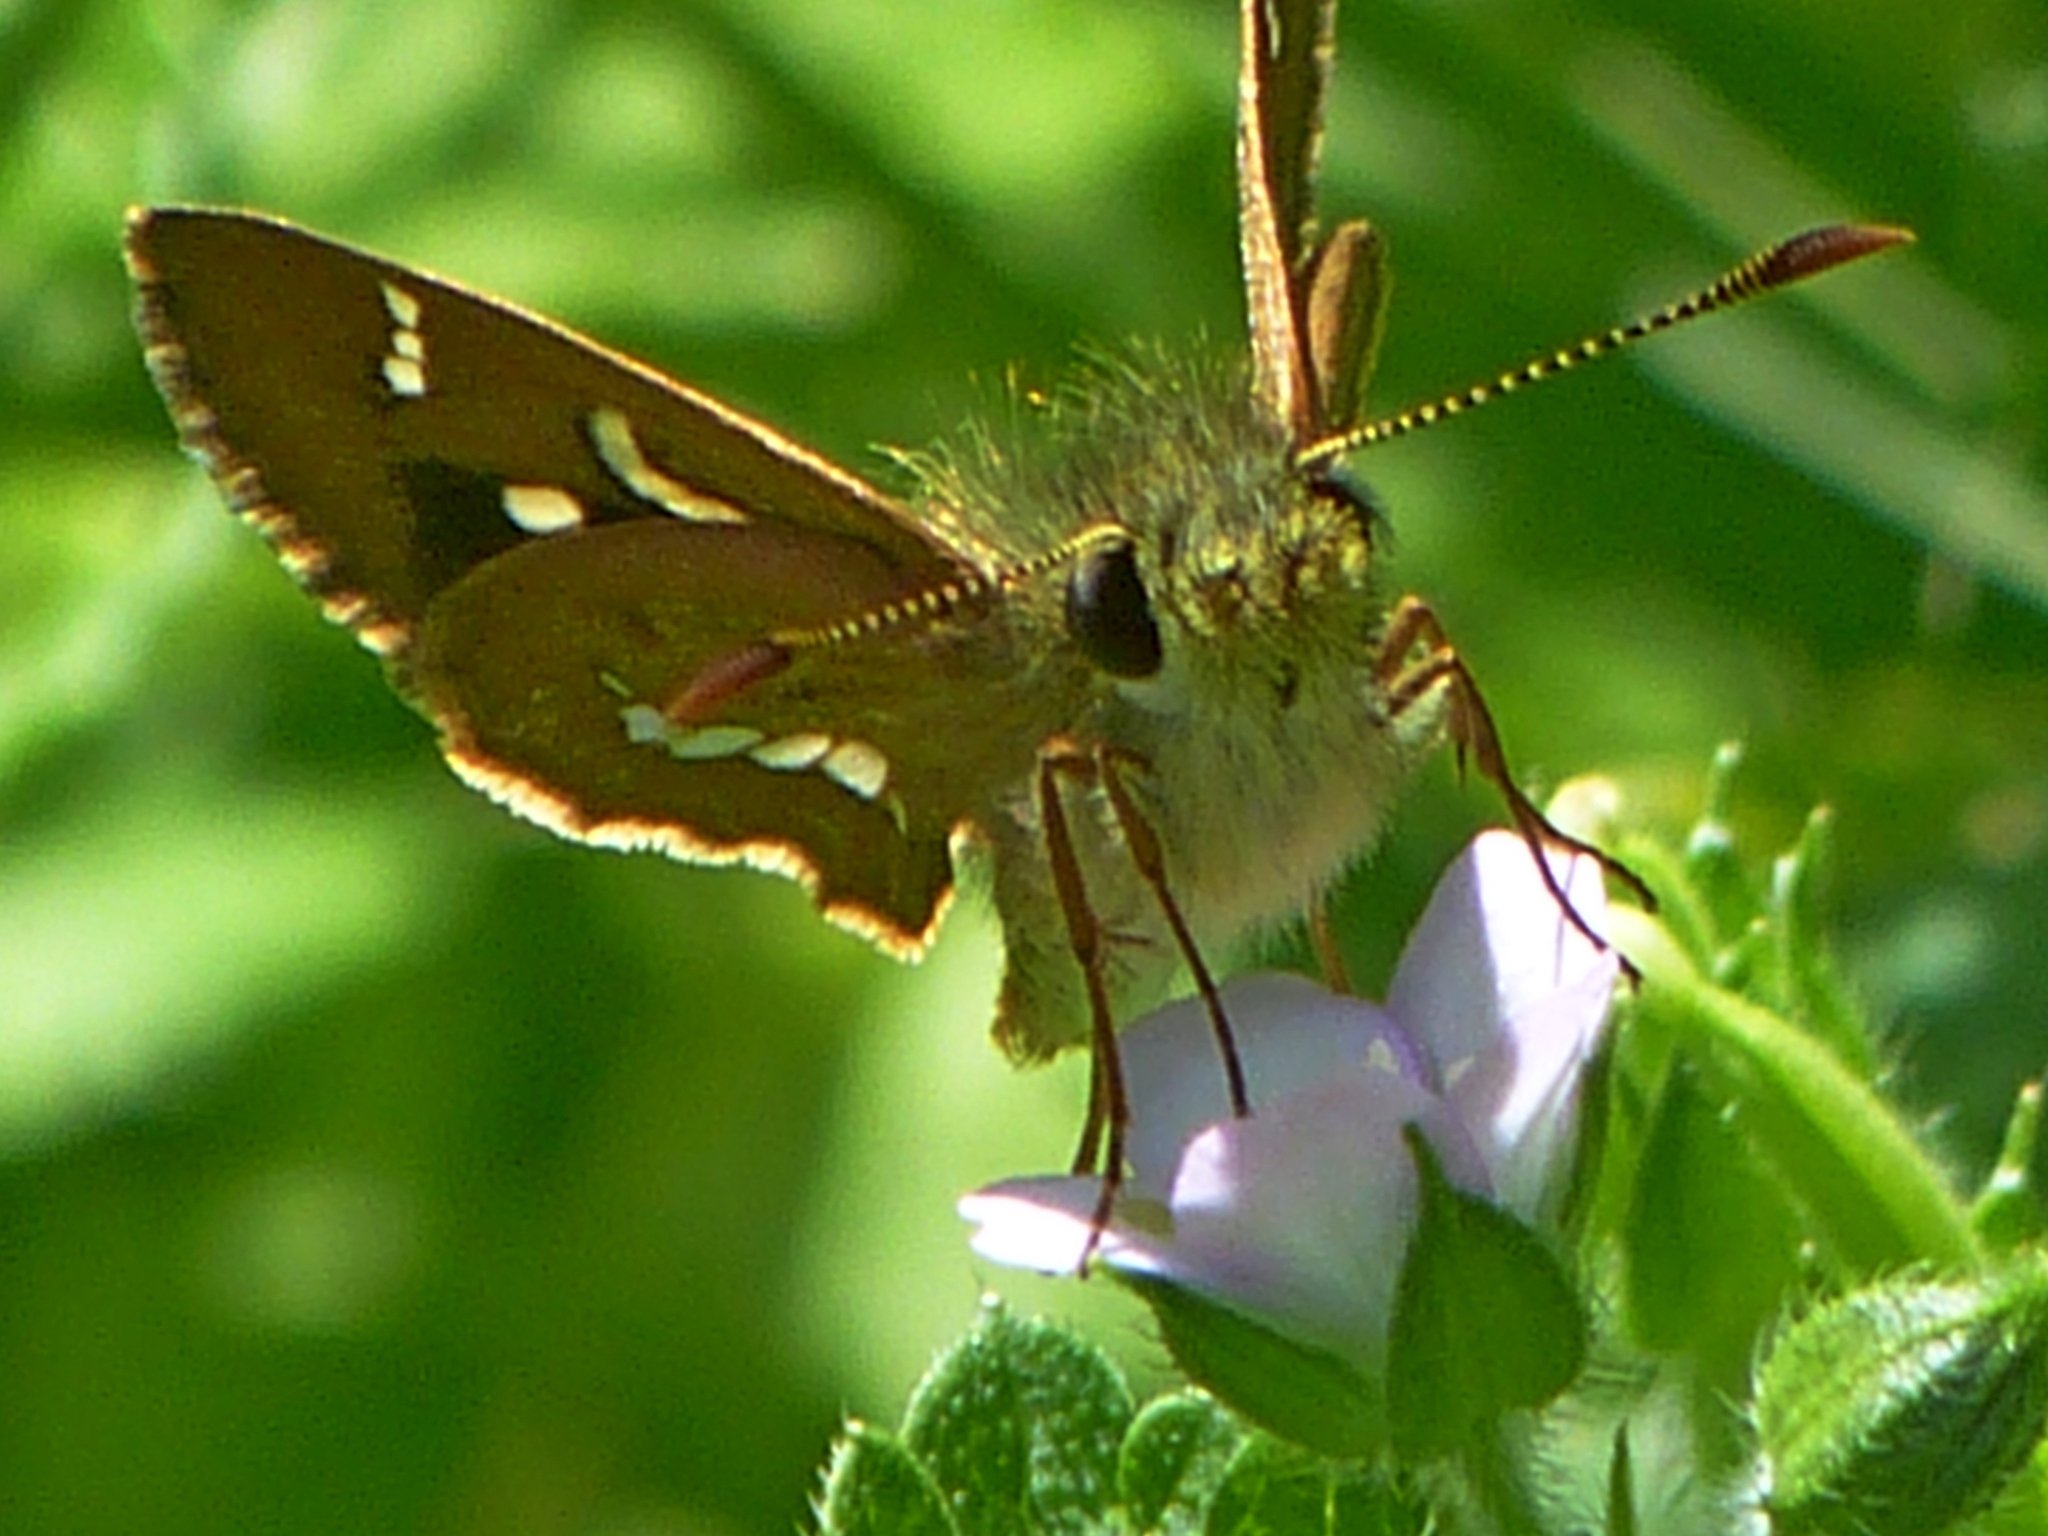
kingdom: Animalia
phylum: Arthropoda
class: Insecta
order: Lepidoptera
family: Hesperiidae
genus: Dispar
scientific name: Dispar compacta
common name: Barred skipper
